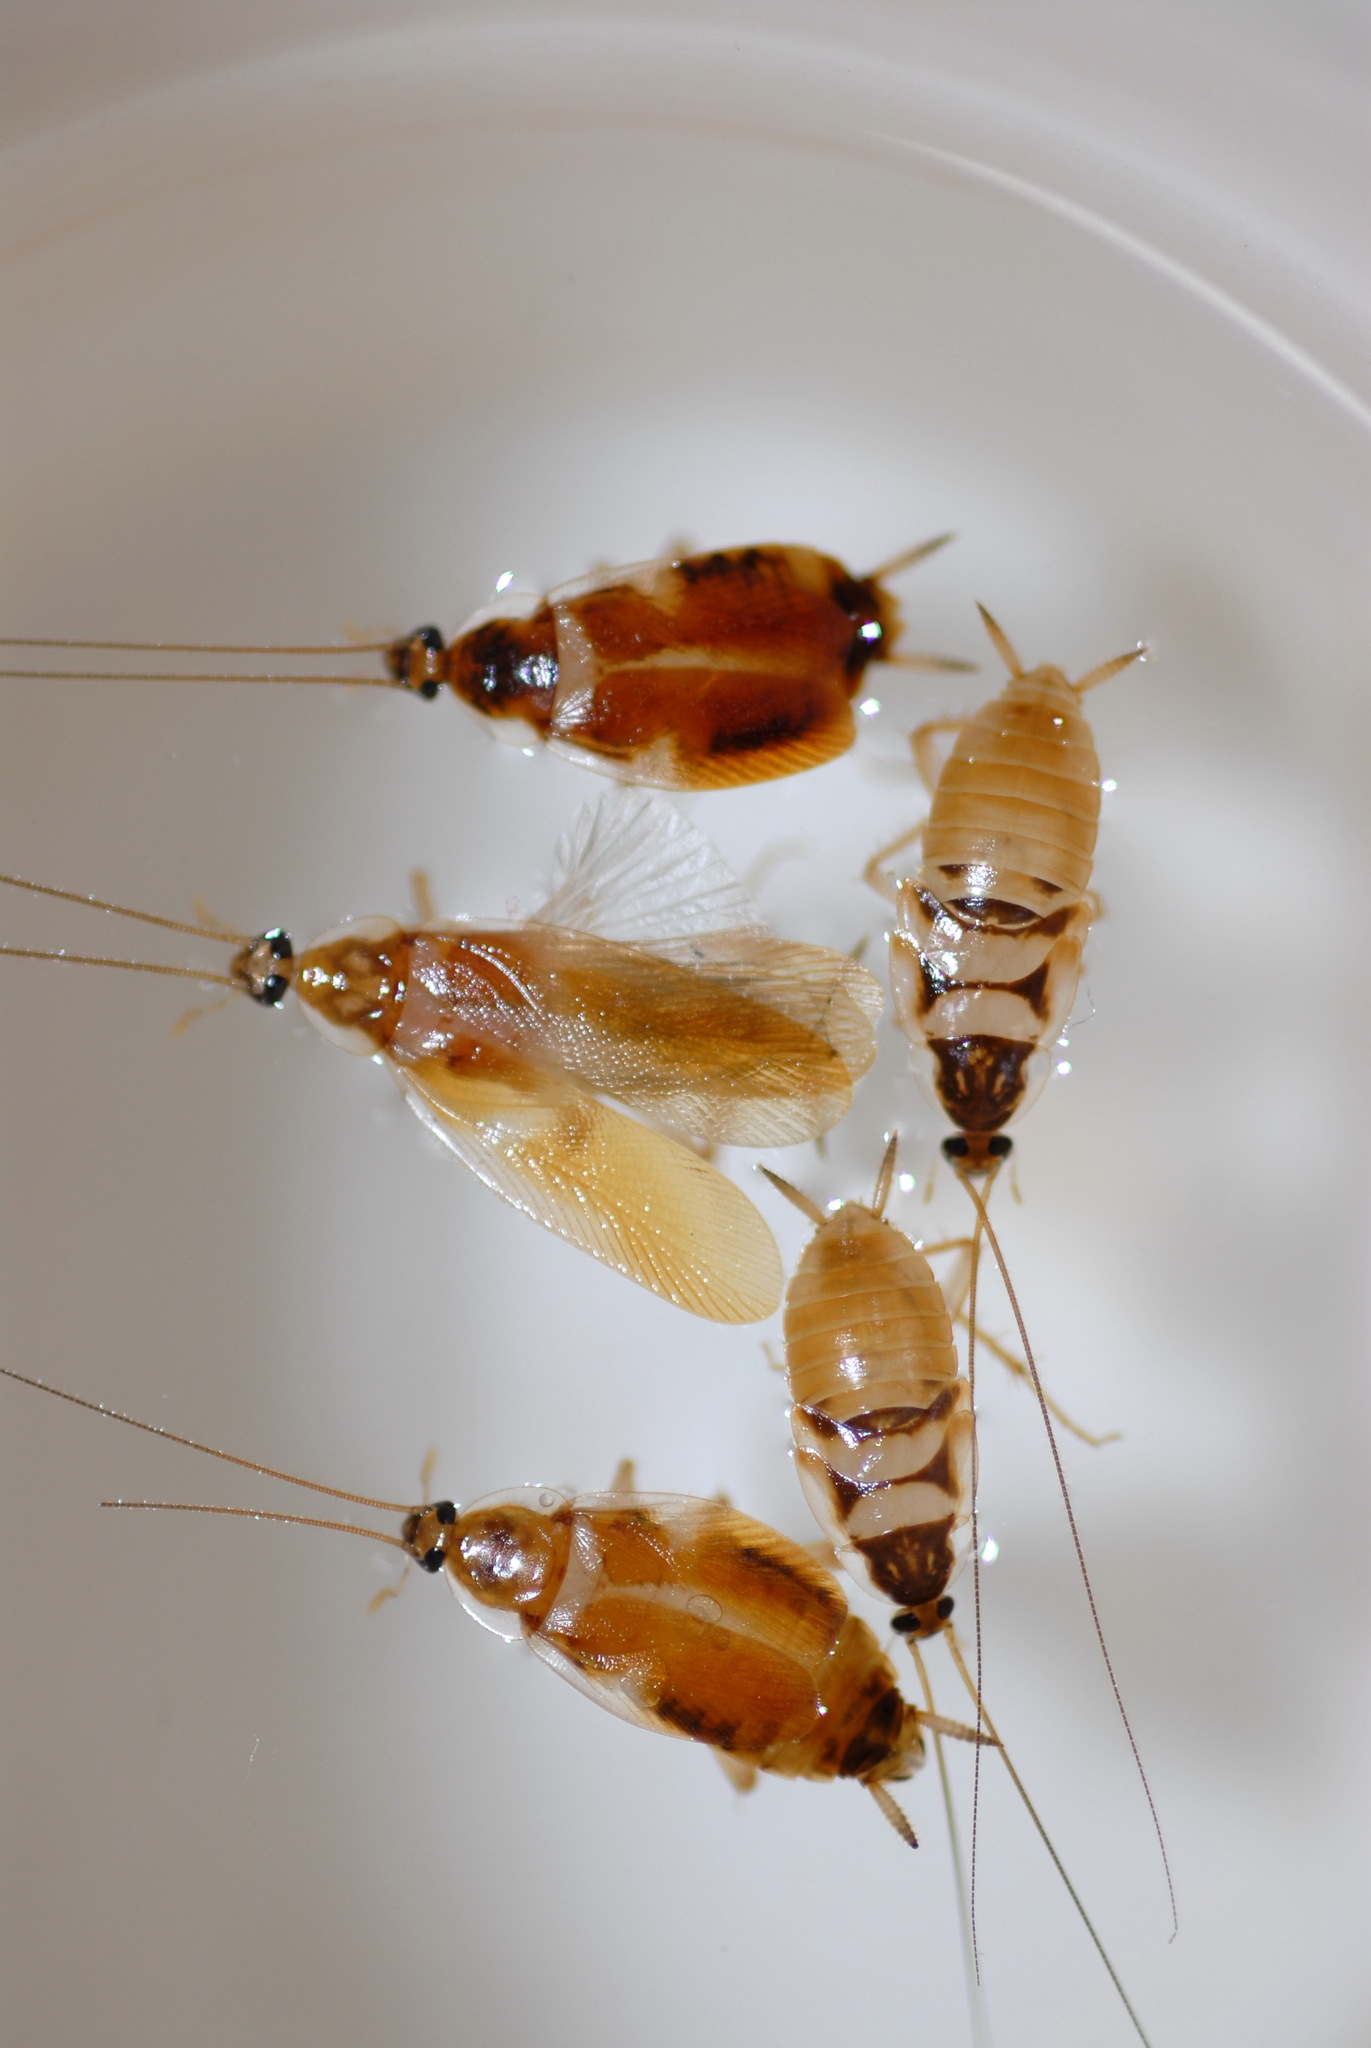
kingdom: Animalia
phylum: Arthropoda
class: Insecta
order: Blattodea
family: Ectobiidae
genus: Supella
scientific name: Supella longipalpa
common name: Brown-banded cockroach
